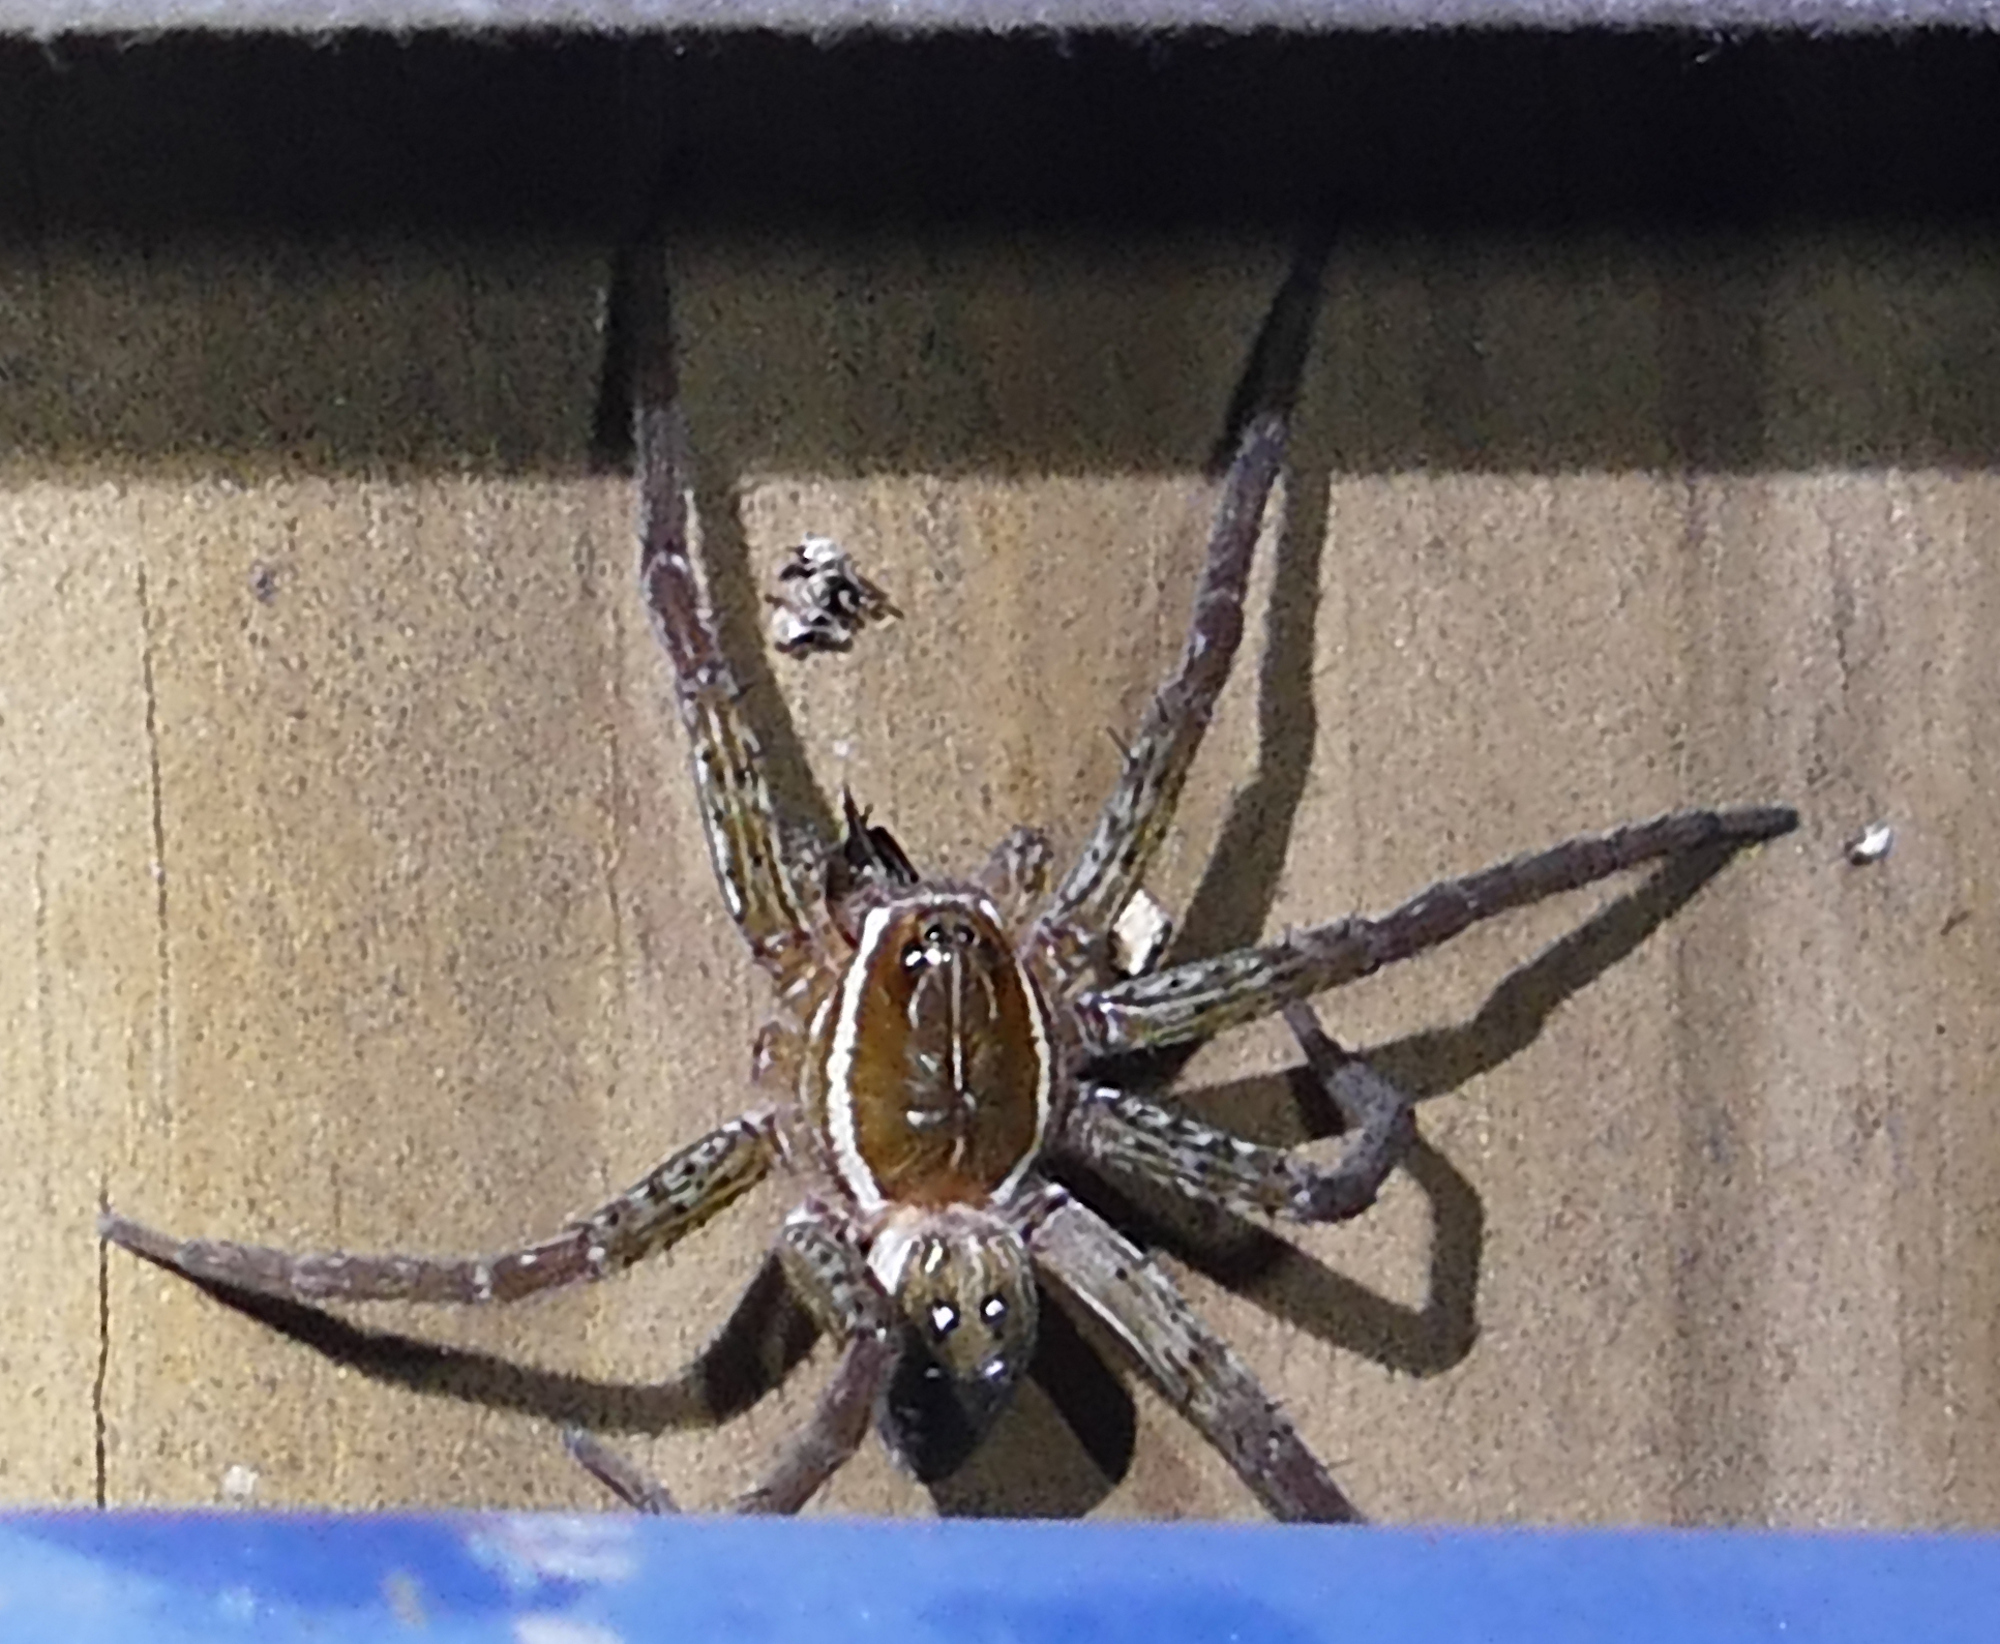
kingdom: Animalia
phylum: Arthropoda
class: Arachnida
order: Araneae
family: Pisauridae
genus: Dolomedes
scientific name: Dolomedes triton
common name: Six-spotted fishing spider
